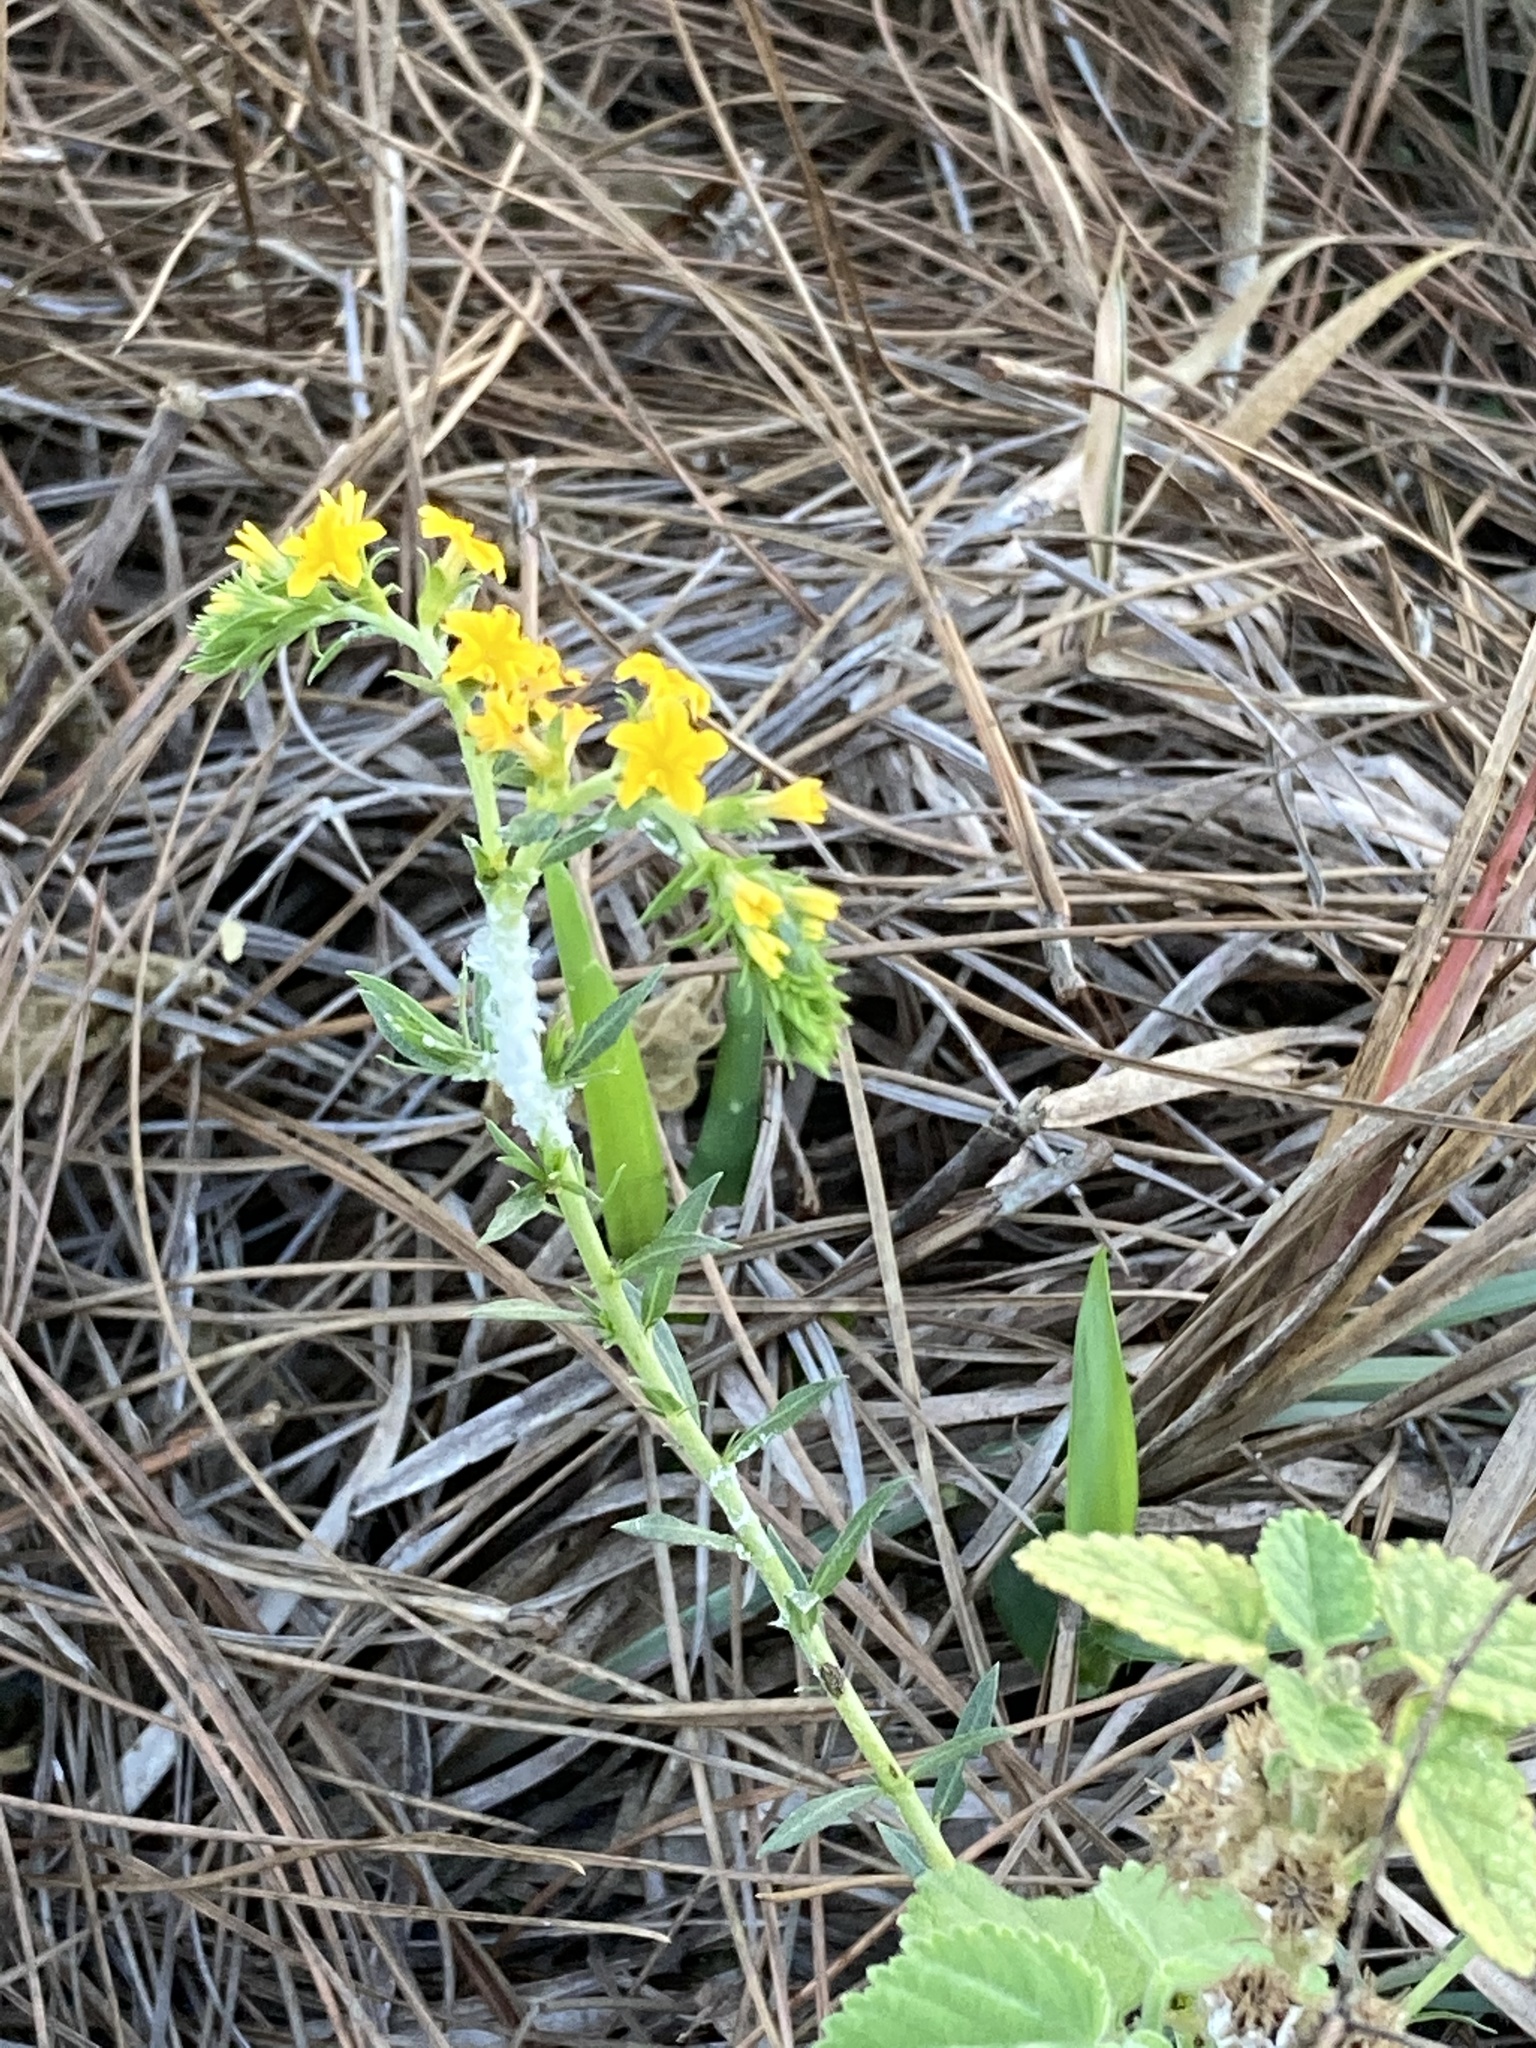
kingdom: Plantae
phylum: Tracheophyta
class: Magnoliopsida
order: Boraginales
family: Heliotropiaceae
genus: Euploca
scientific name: Euploca polyphylla
